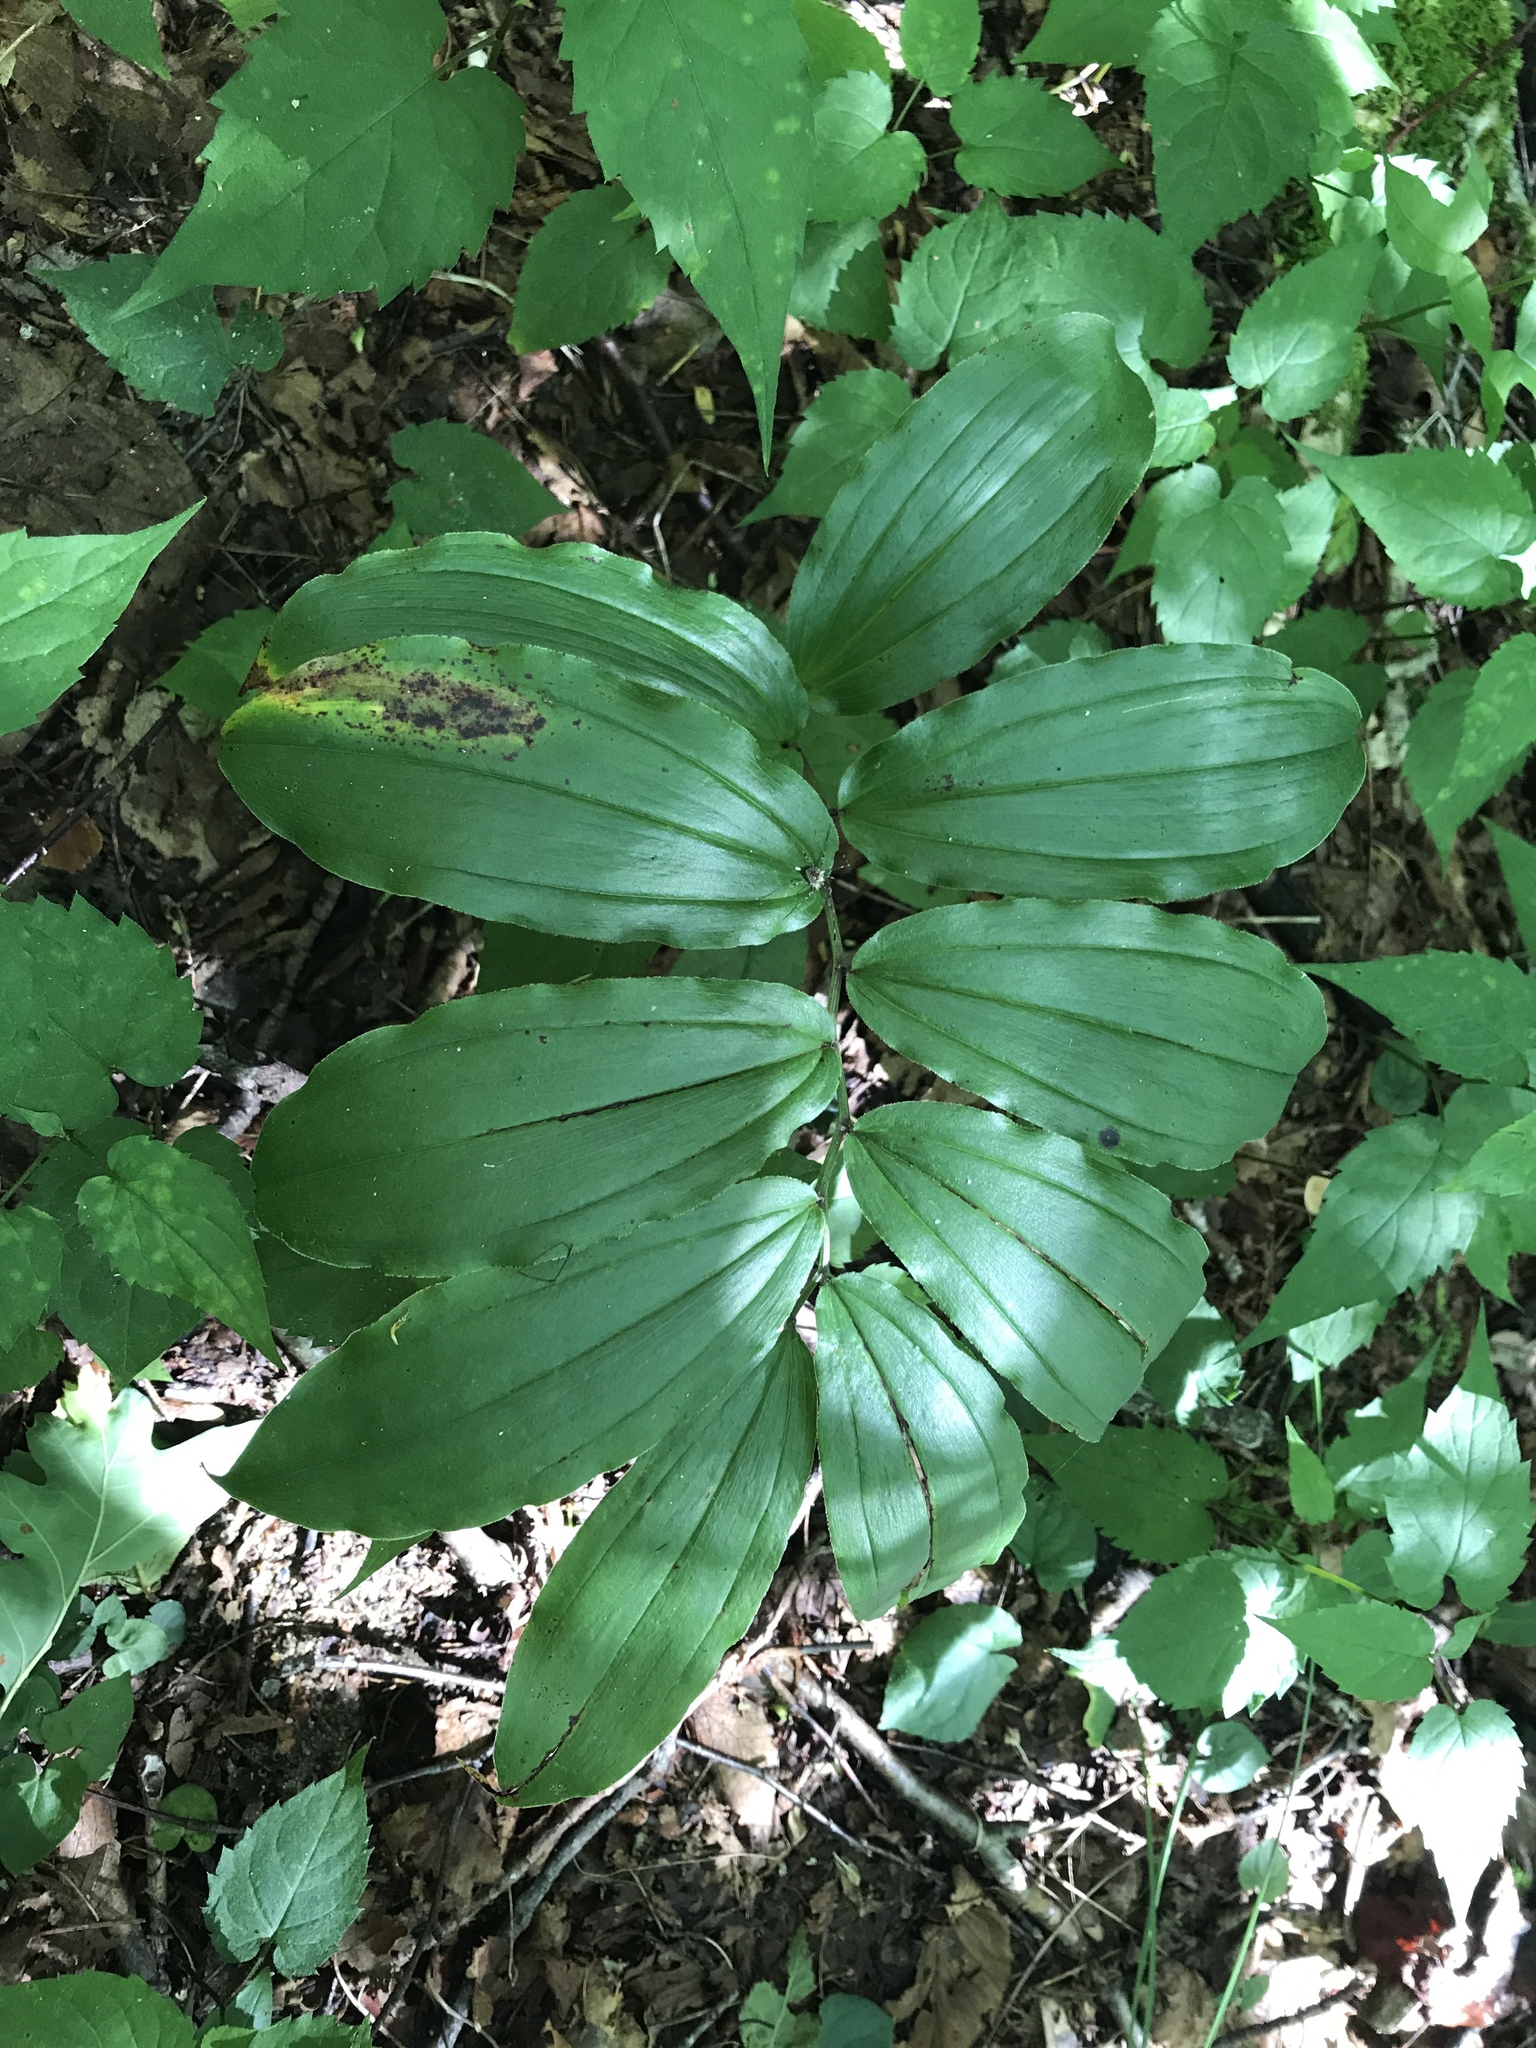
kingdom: Plantae
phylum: Tracheophyta
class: Liliopsida
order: Asparagales
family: Asparagaceae
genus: Maianthemum
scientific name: Maianthemum racemosum
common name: False spikenard
